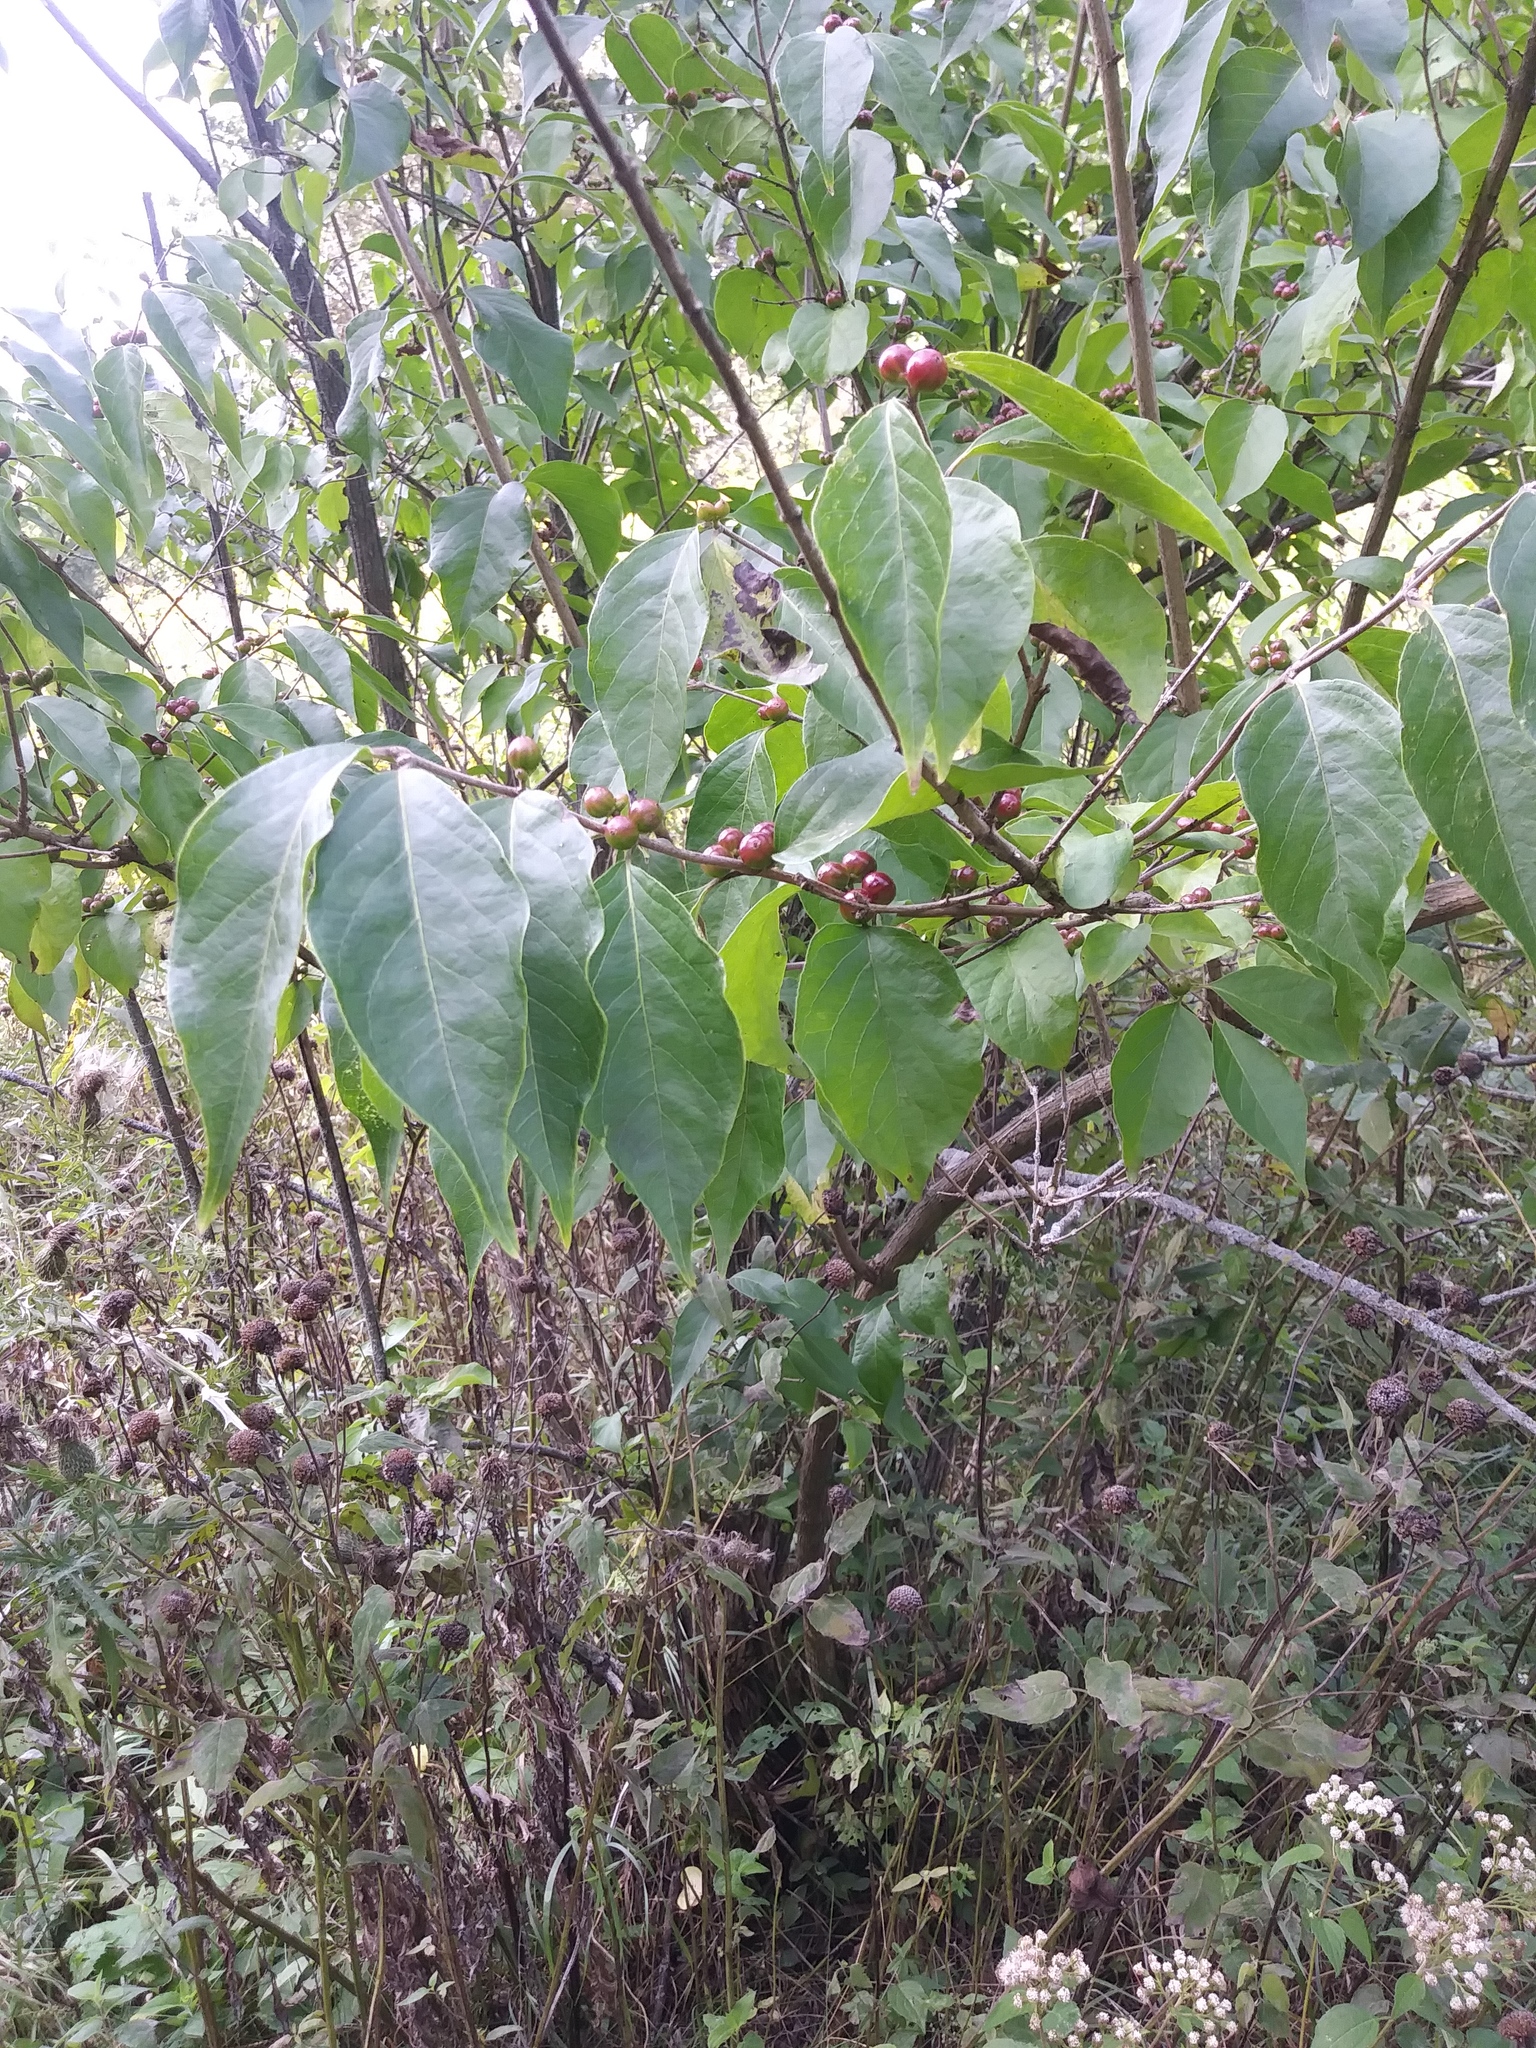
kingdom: Plantae
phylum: Tracheophyta
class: Magnoliopsida
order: Dipsacales
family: Caprifoliaceae
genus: Lonicera
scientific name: Lonicera maackii
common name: Amur honeysuckle
